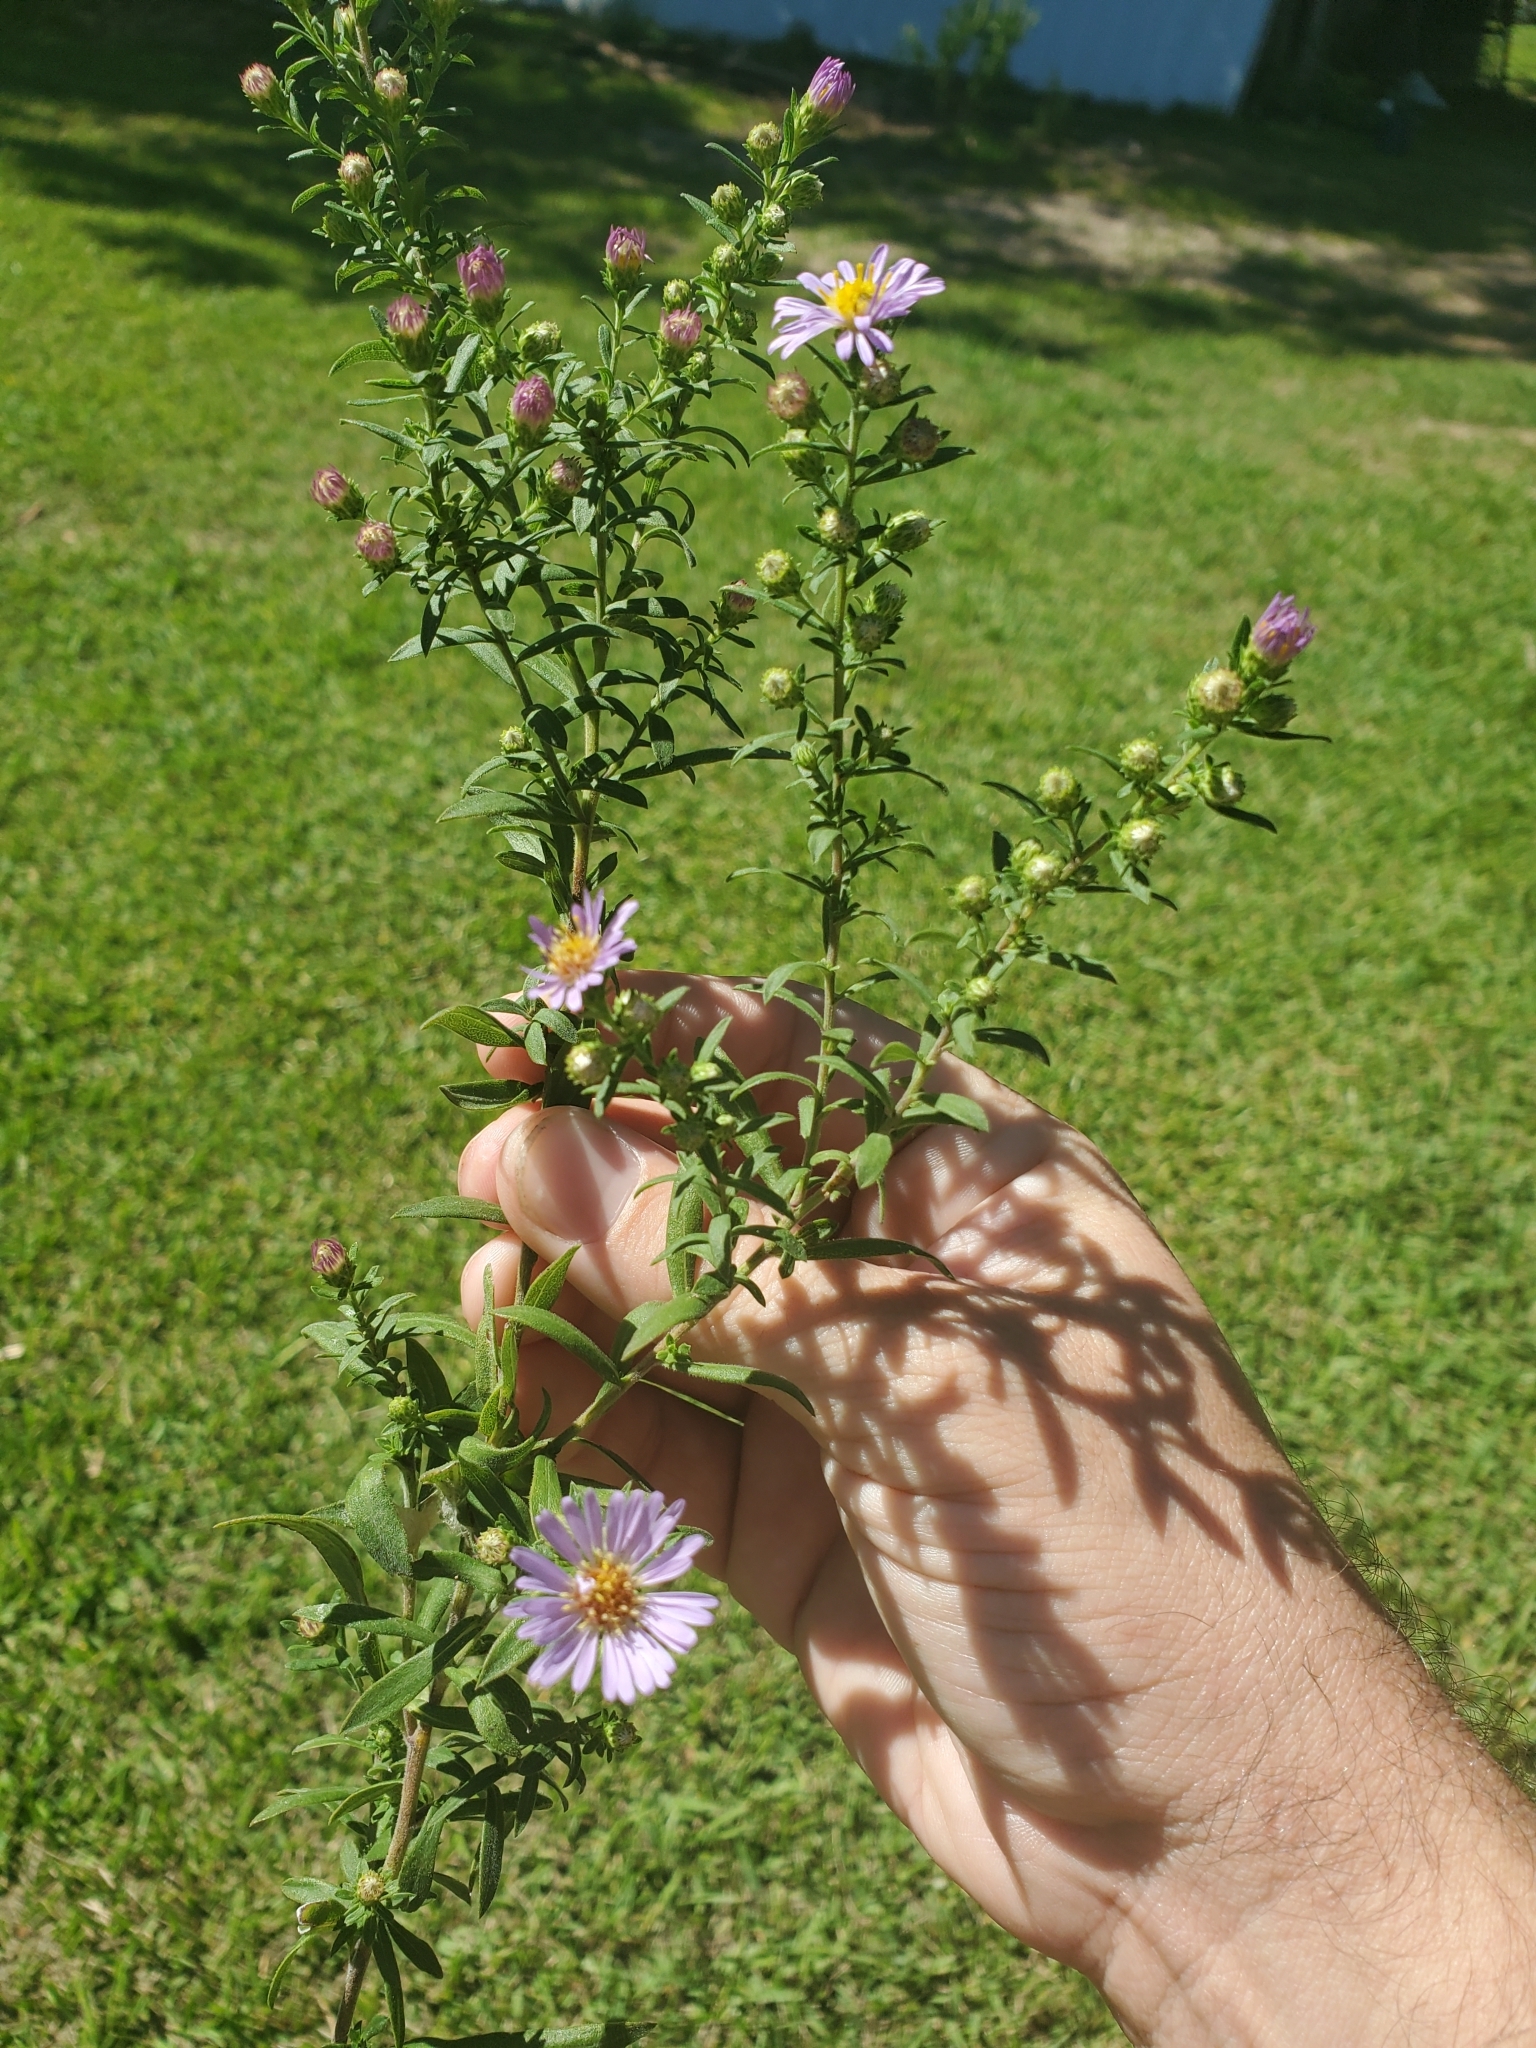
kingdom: Plantae
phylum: Tracheophyta
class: Magnoliopsida
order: Asterales
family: Asteraceae
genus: Symphyotrichum
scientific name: Symphyotrichum praealtum
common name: Willow aster
